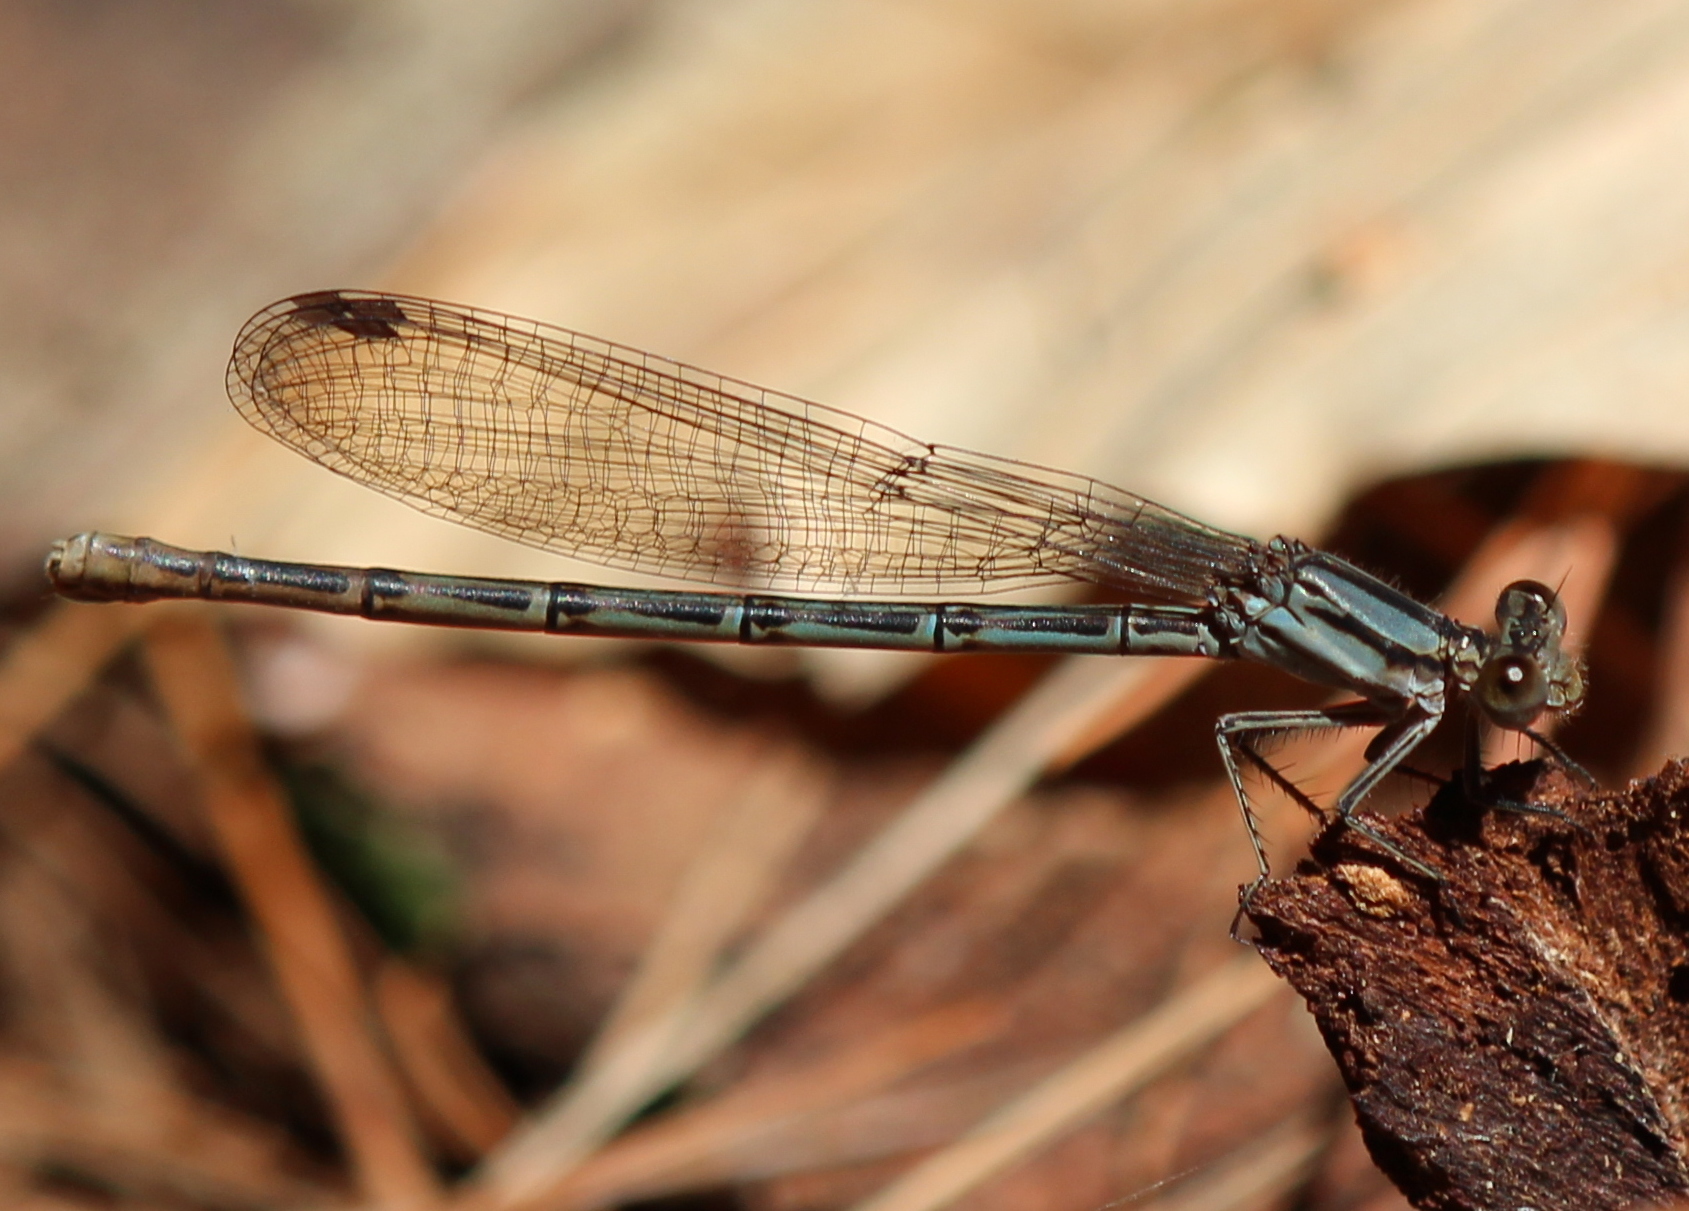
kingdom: Animalia
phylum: Arthropoda
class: Insecta
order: Odonata
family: Coenagrionidae
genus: Argia
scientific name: Argia fumipennis
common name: Variable dancer
